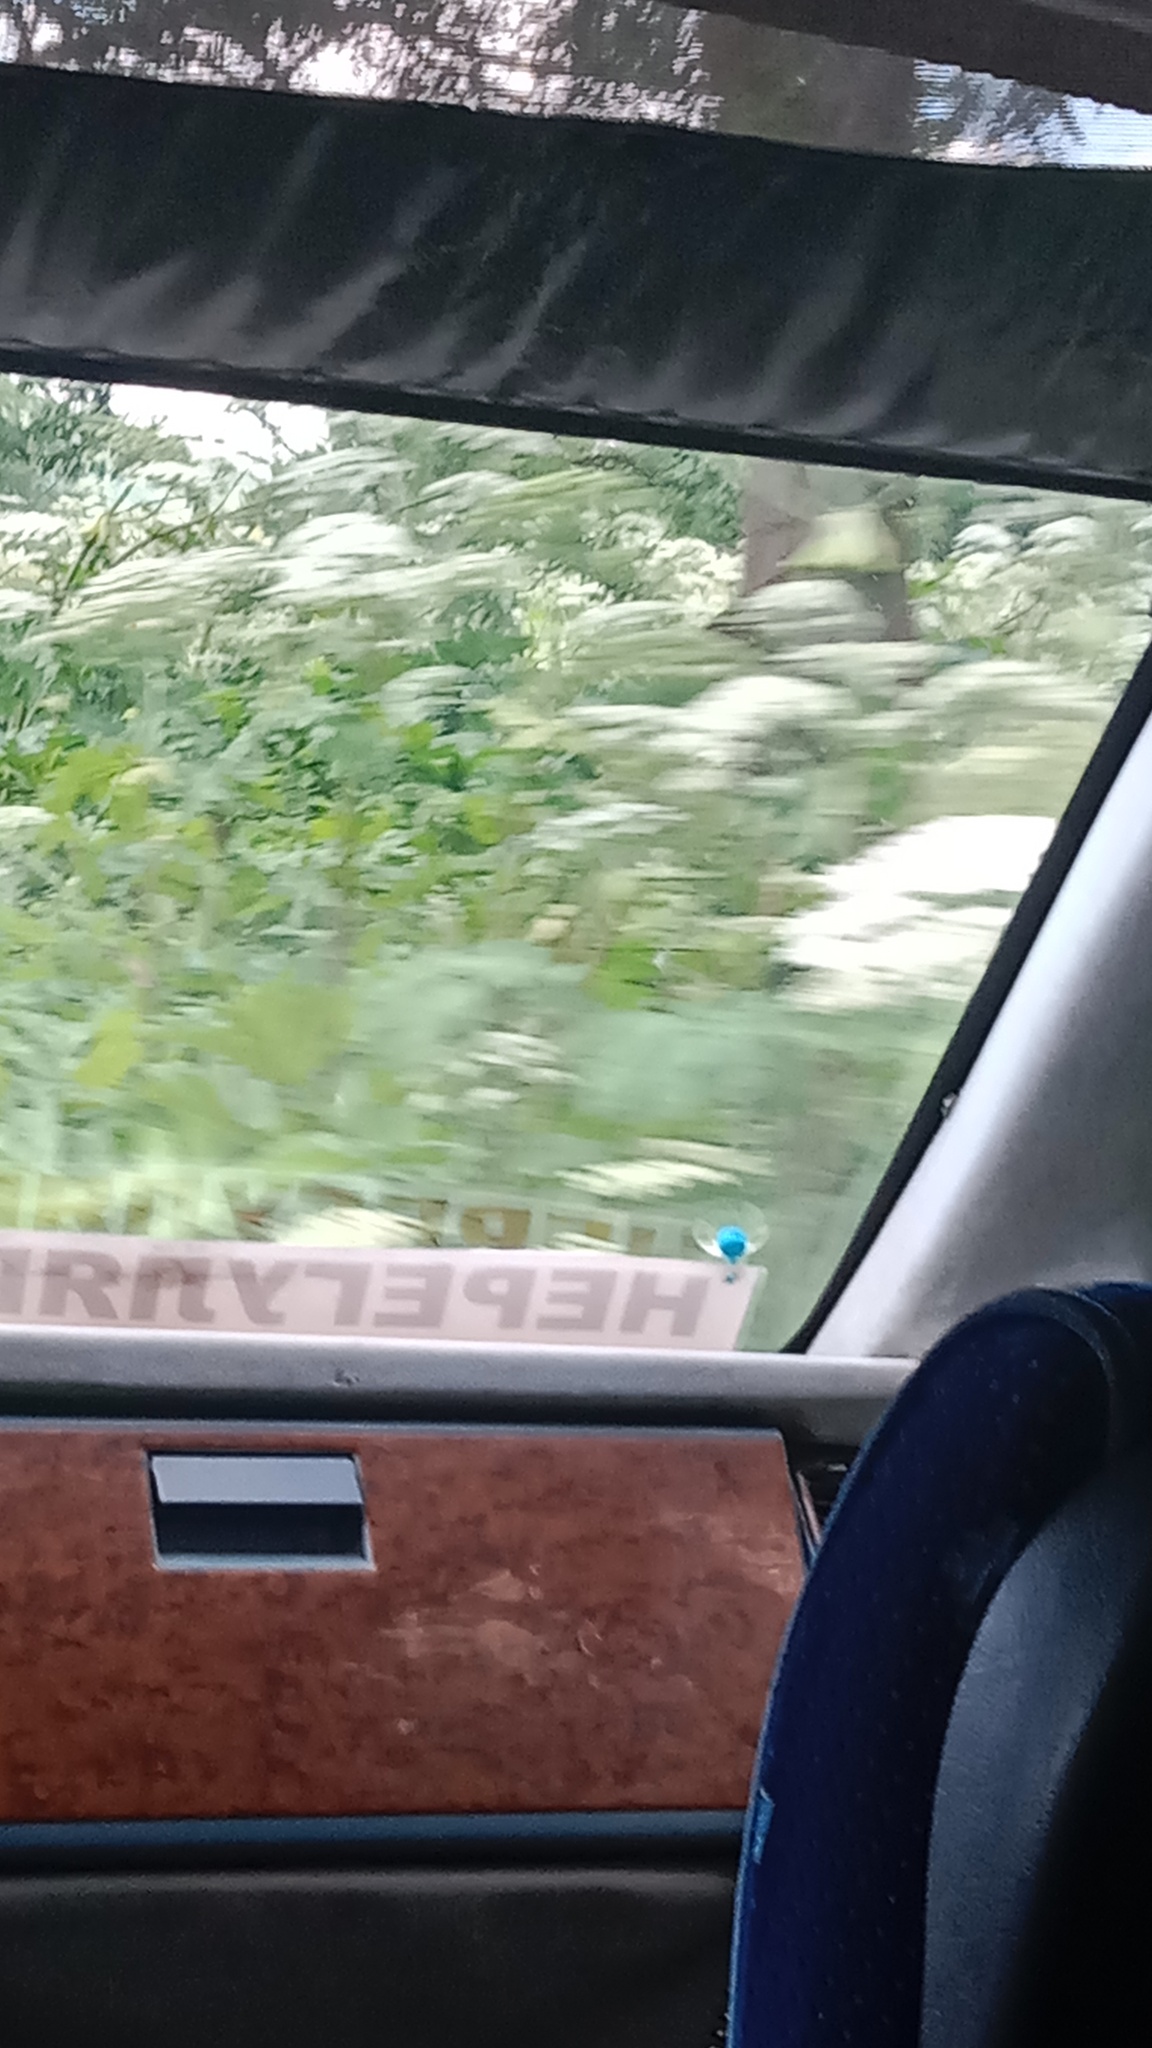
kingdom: Plantae
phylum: Tracheophyta
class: Magnoliopsida
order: Apiales
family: Apiaceae
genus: Heracleum
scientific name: Heracleum sosnowskyi
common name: Sosnowsky's hogweed
